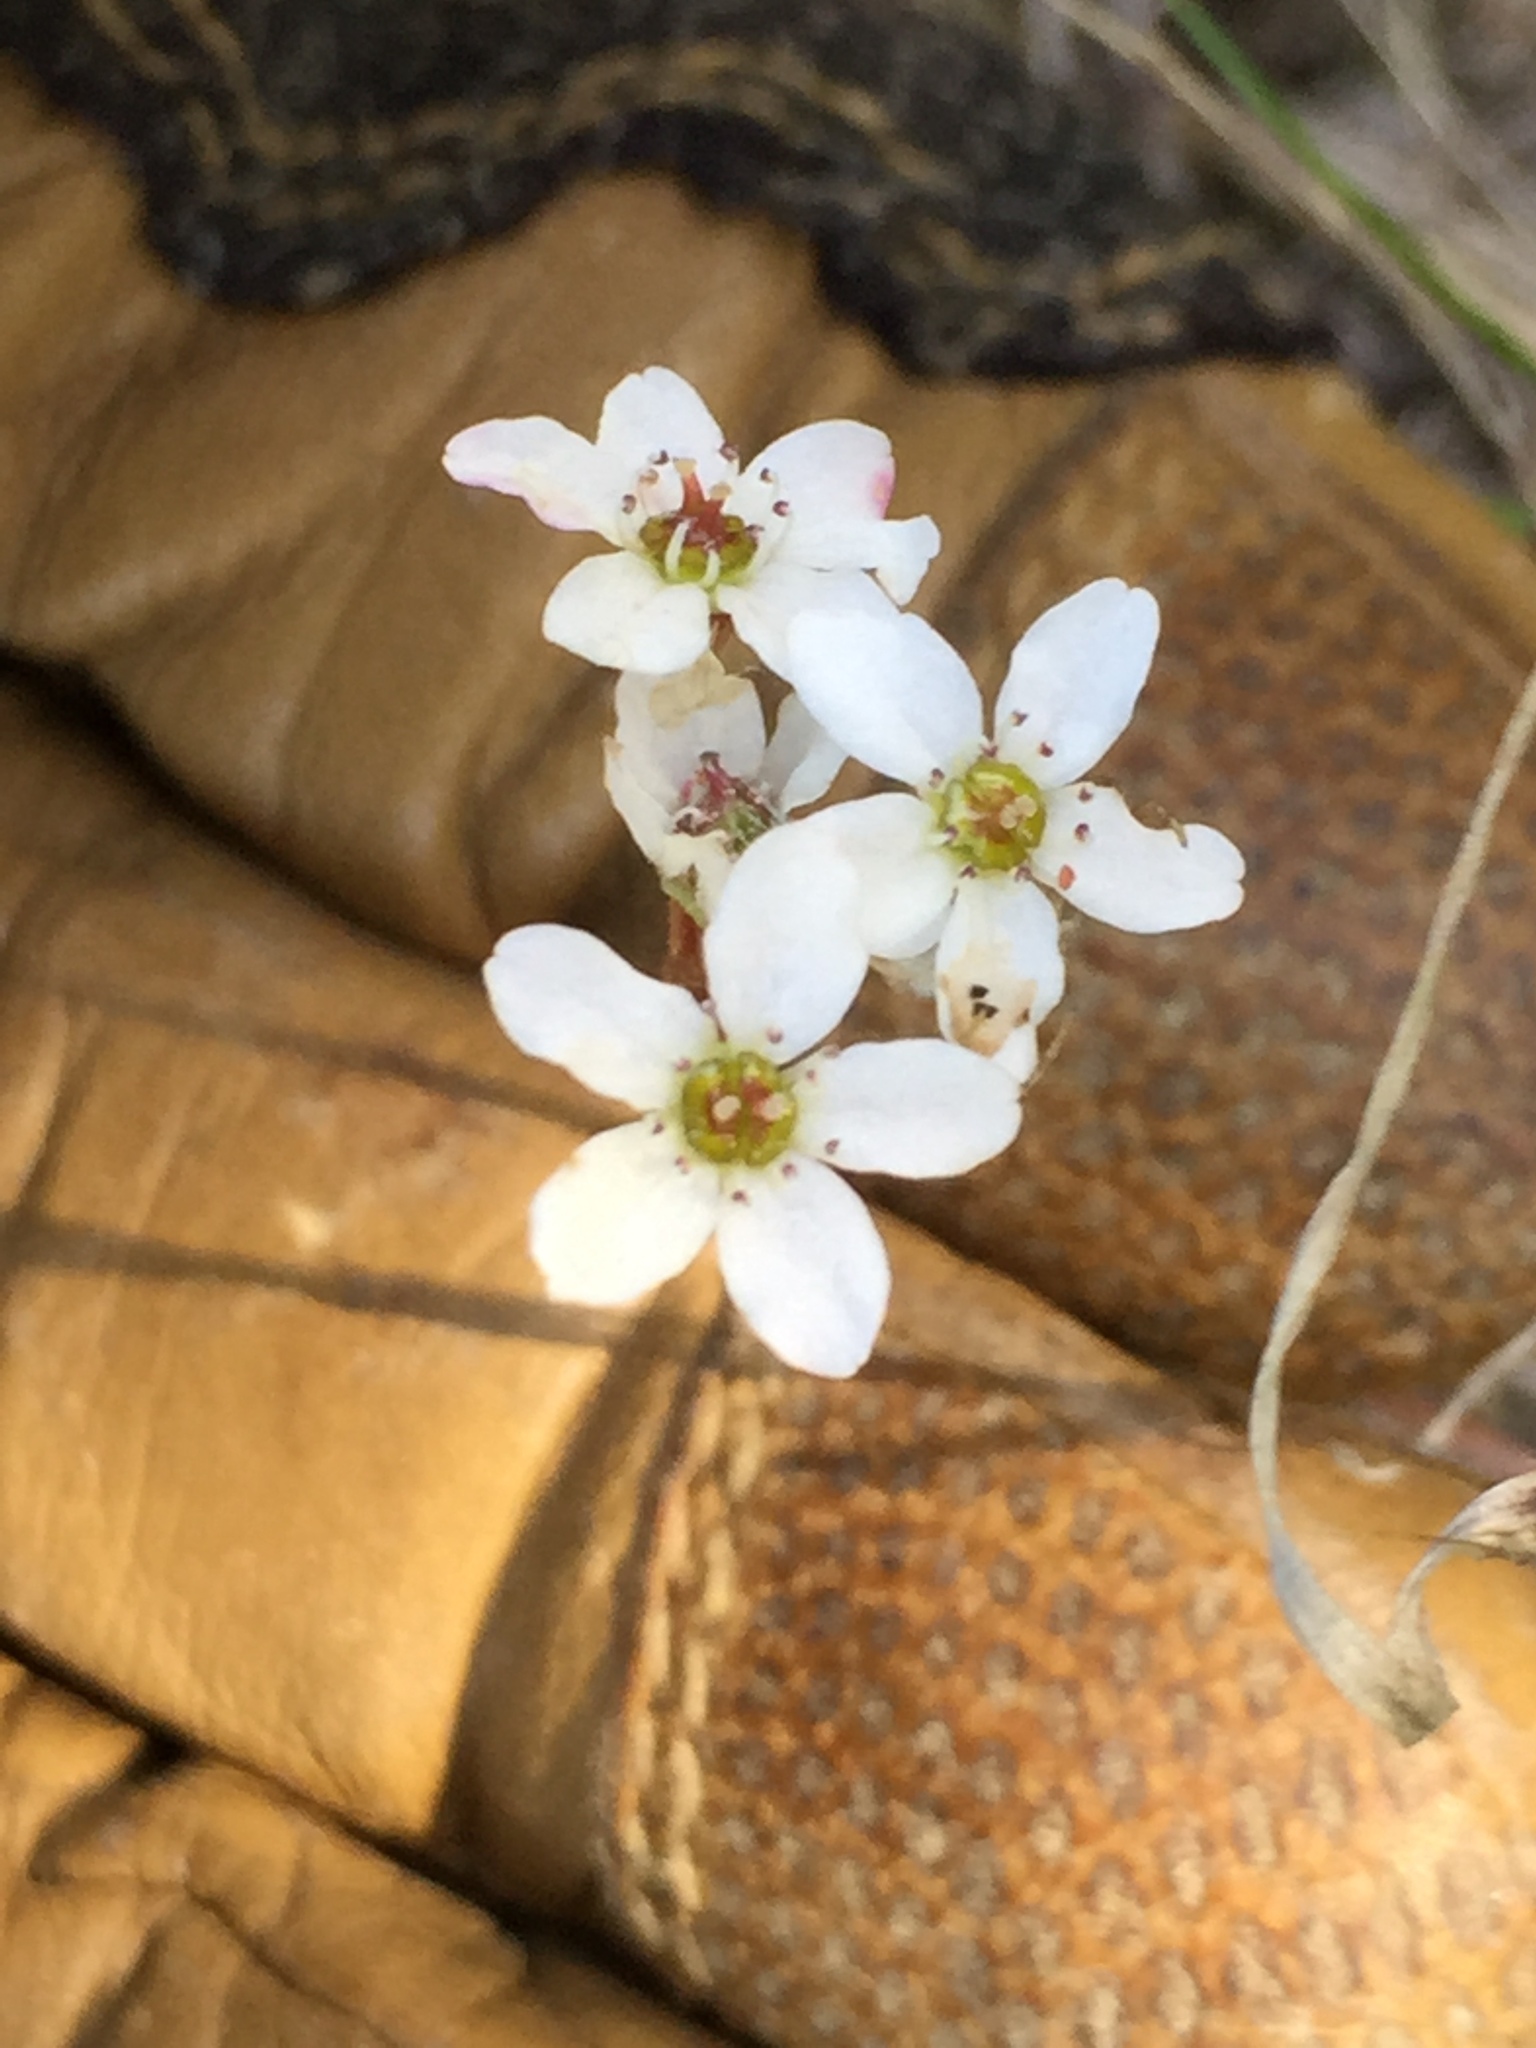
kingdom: Plantae
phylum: Tracheophyta
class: Magnoliopsida
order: Saxifragales
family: Saxifragaceae
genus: Micranthes
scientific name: Micranthes californica
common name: California saxifrage
